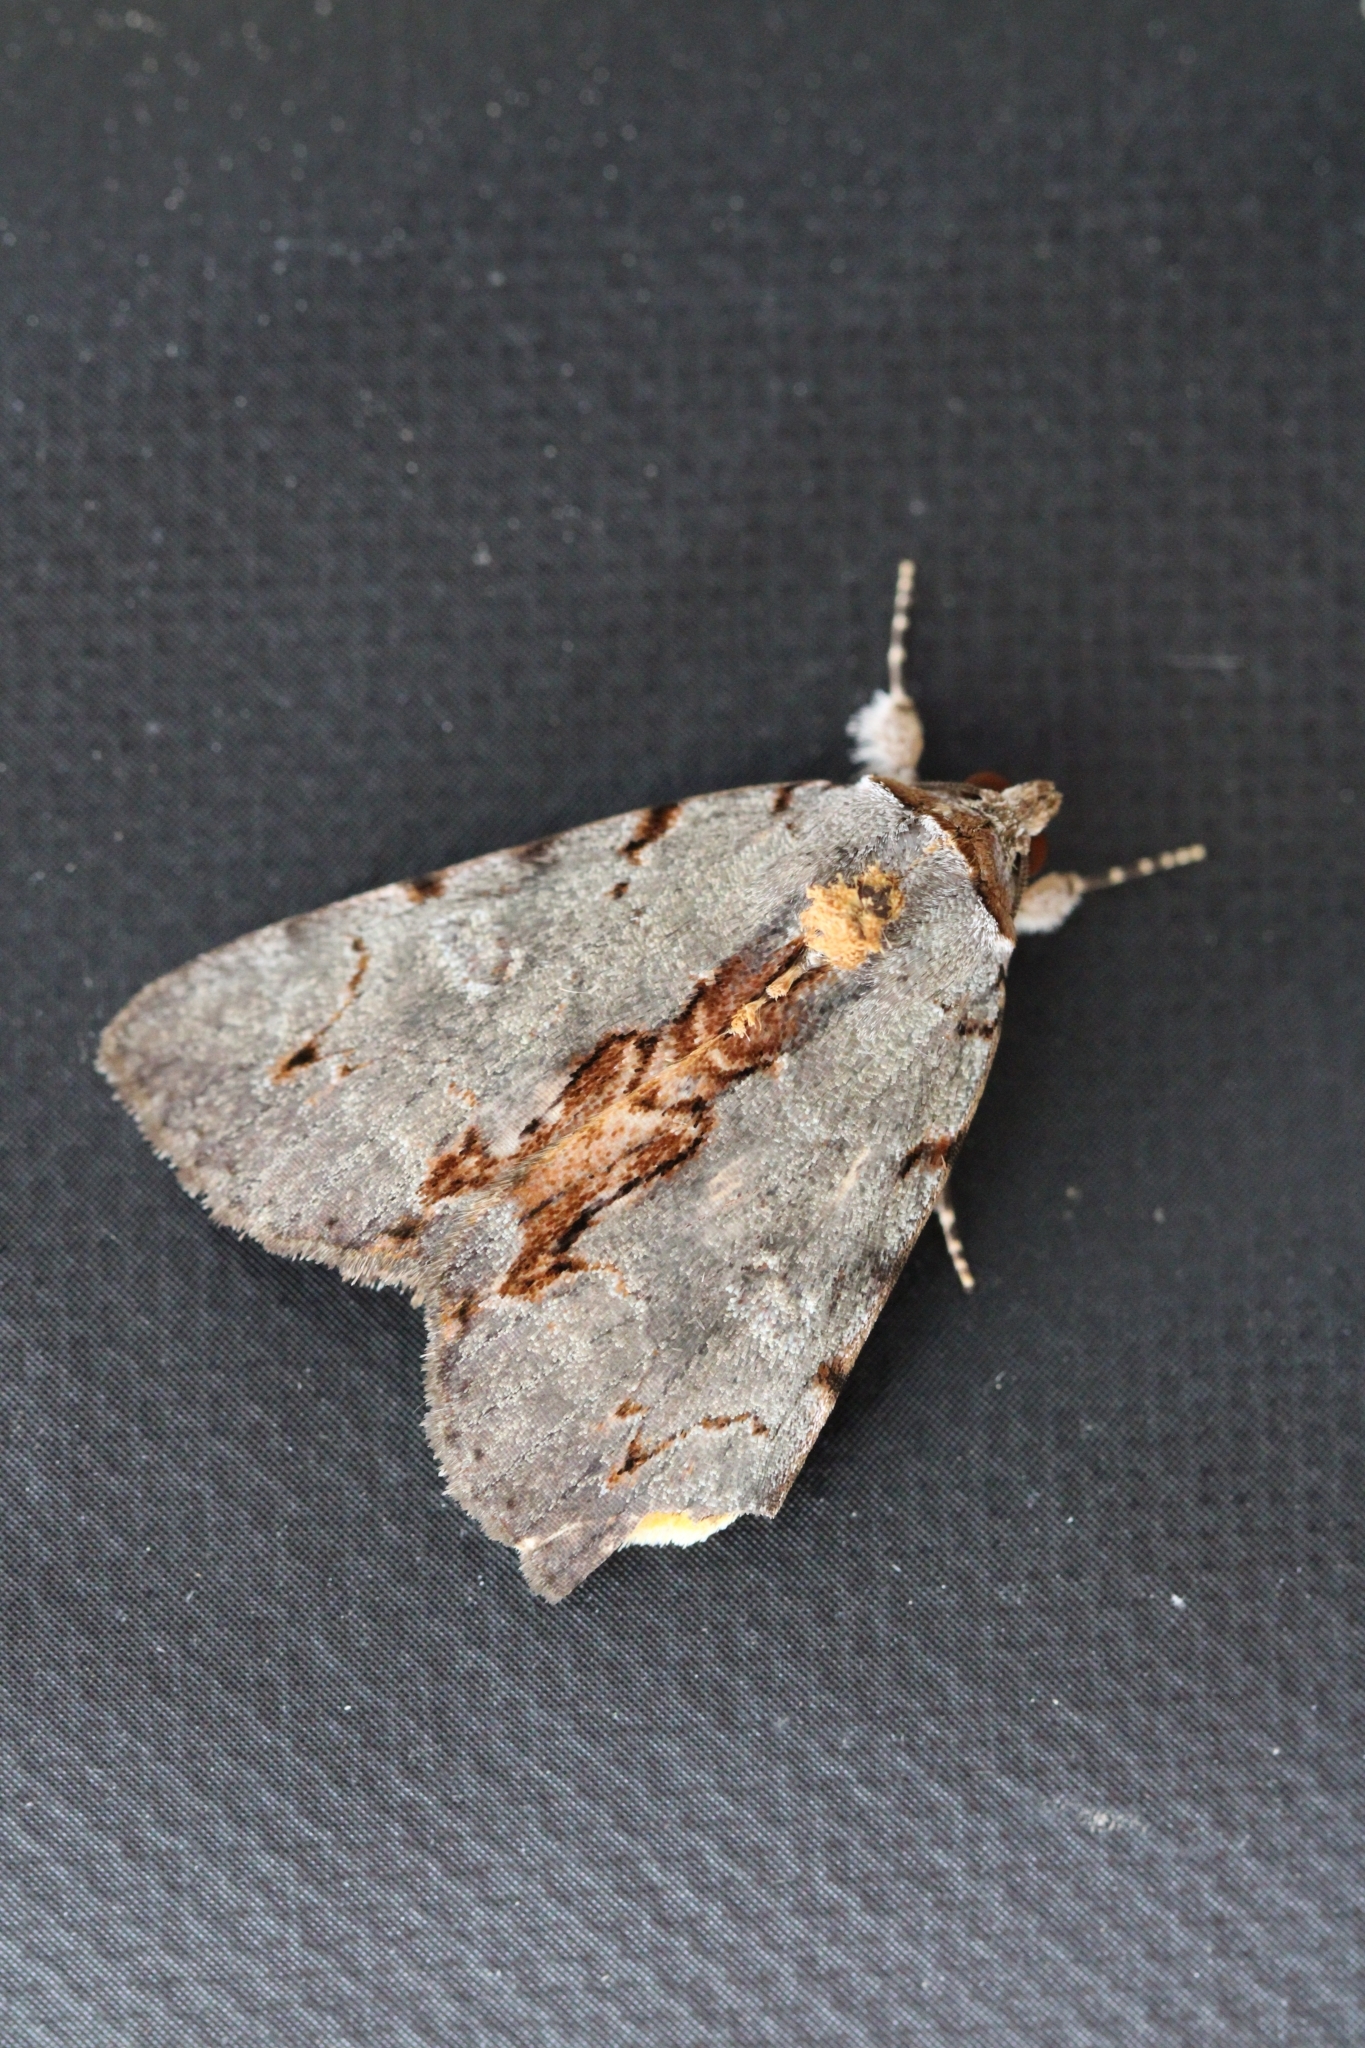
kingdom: Animalia
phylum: Arthropoda
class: Insecta
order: Lepidoptera
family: Erebidae
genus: Catocala
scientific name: Catocala grynea
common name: Woody underwing
